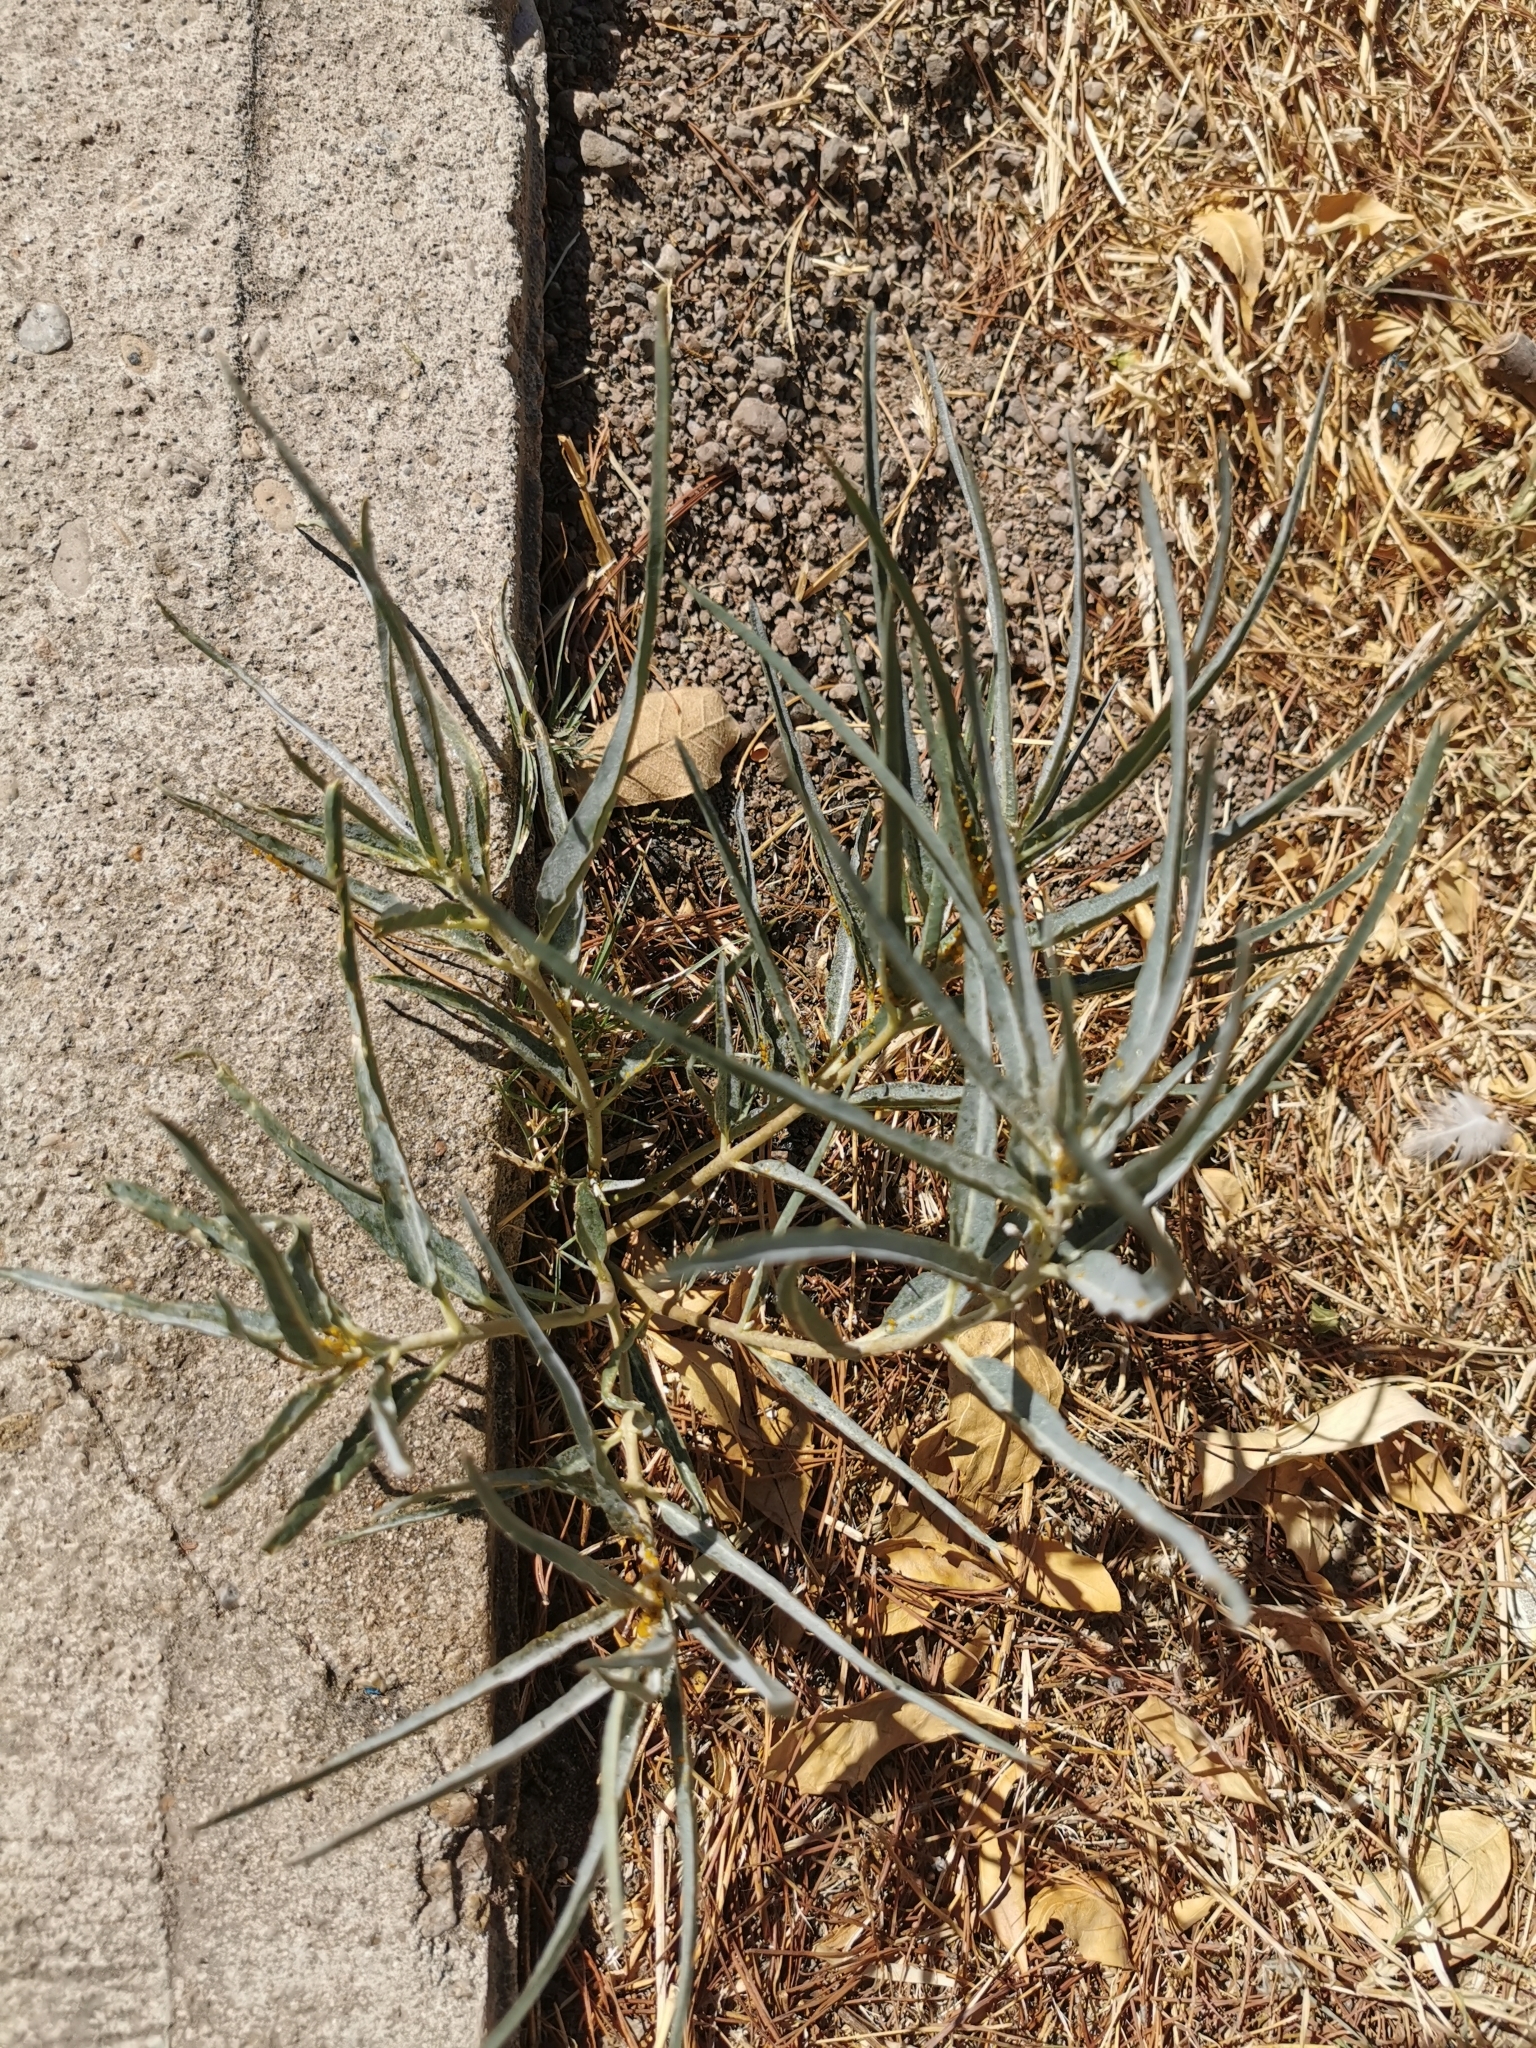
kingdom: Plantae
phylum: Tracheophyta
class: Magnoliopsida
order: Gentianales
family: Apocynaceae
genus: Asclepias
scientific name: Asclepias brachystephana
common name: Shortcrown milkweed
